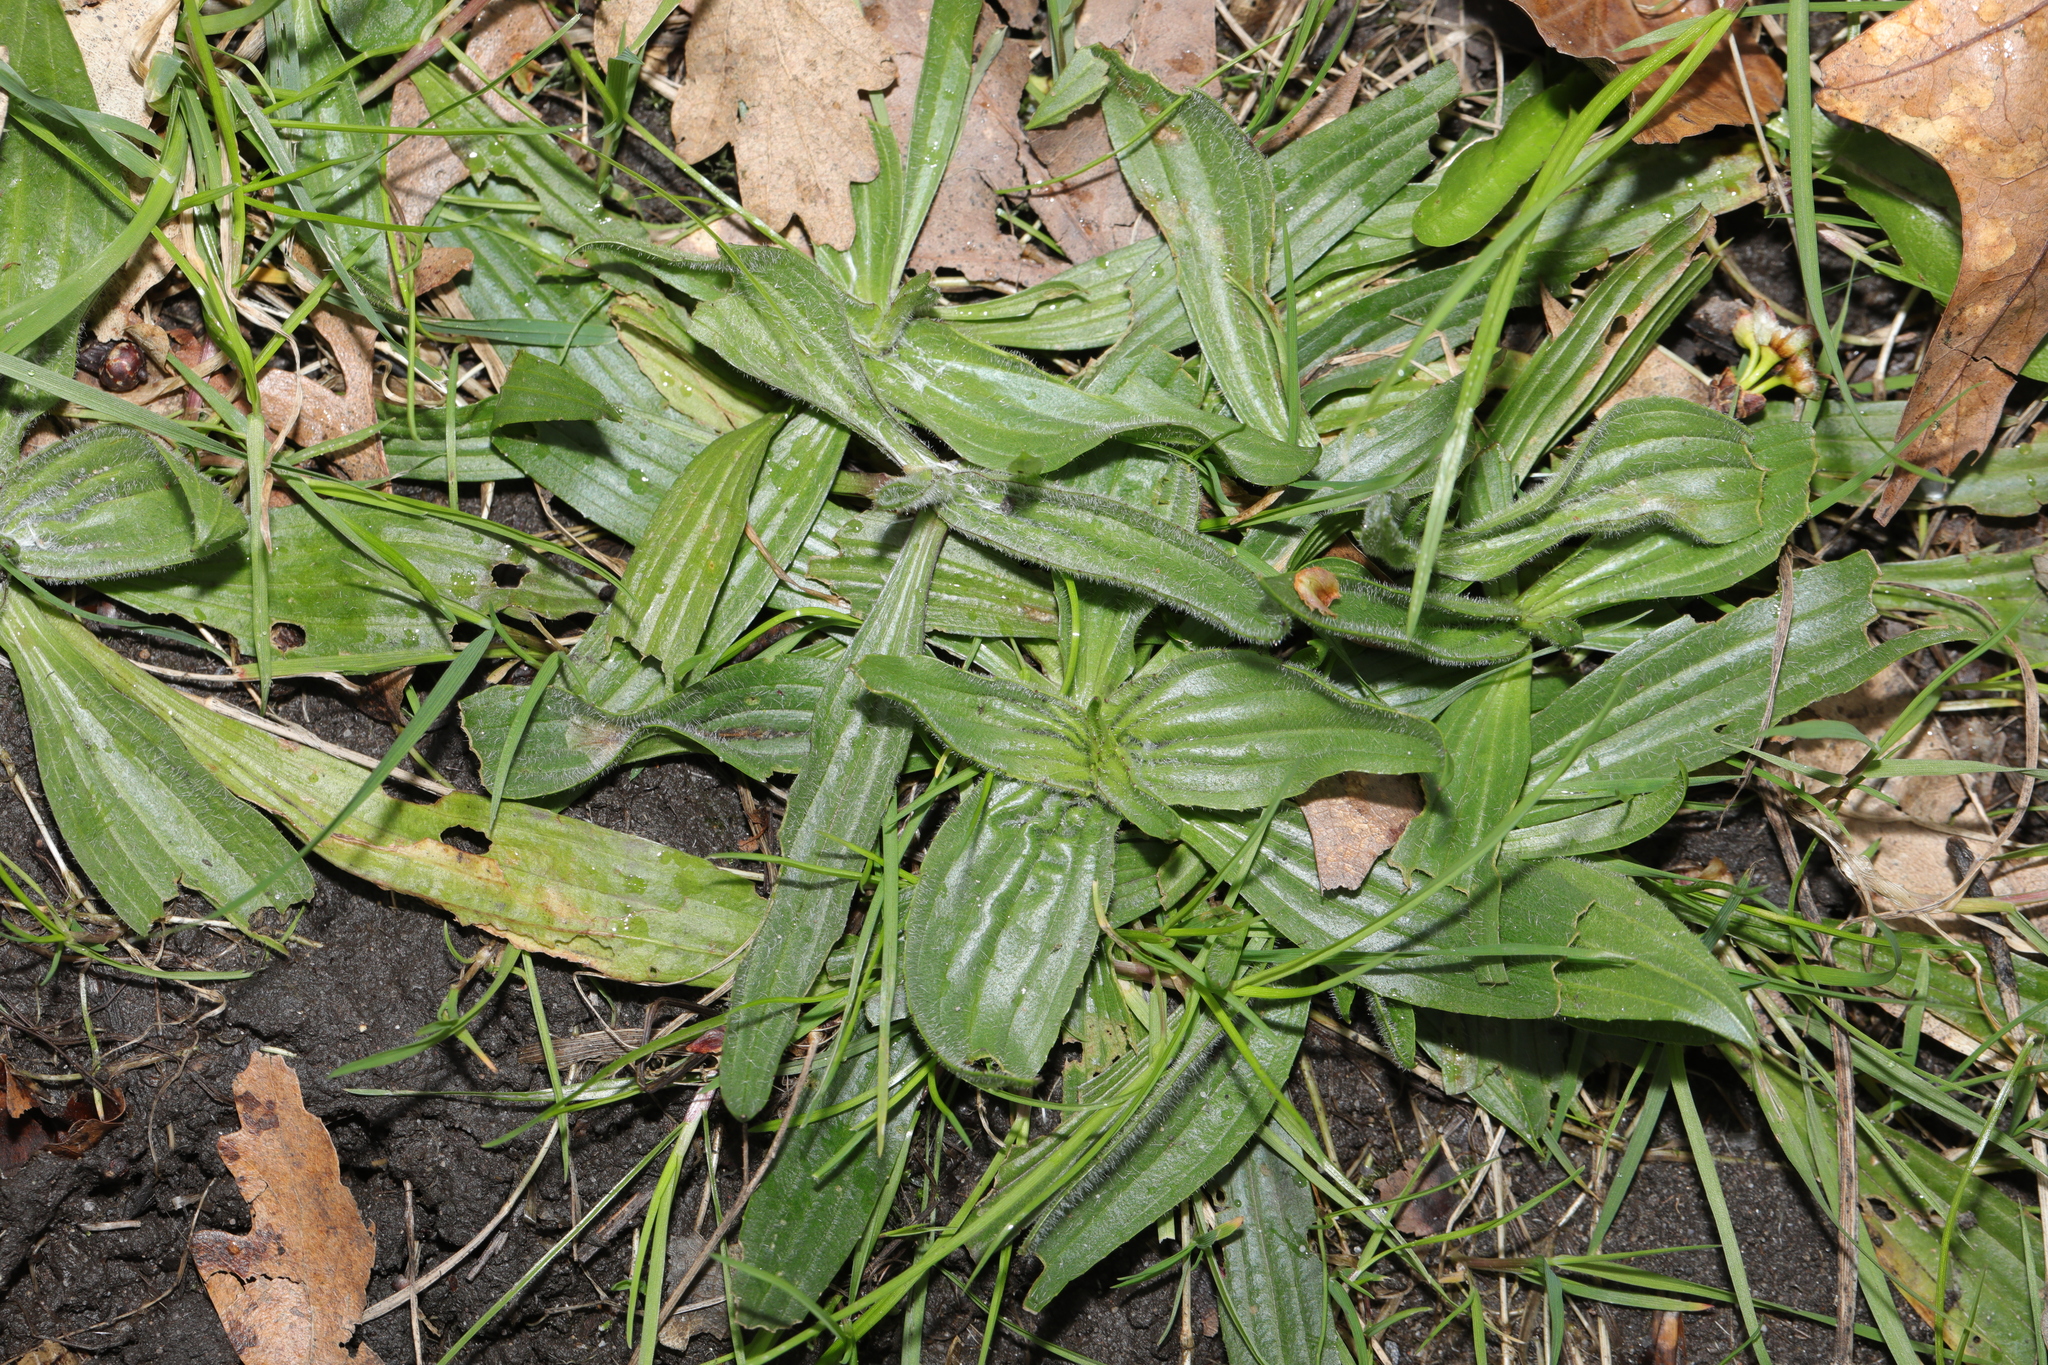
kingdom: Plantae
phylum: Tracheophyta
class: Magnoliopsida
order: Lamiales
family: Plantaginaceae
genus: Plantago
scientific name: Plantago lanceolata
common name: Ribwort plantain
